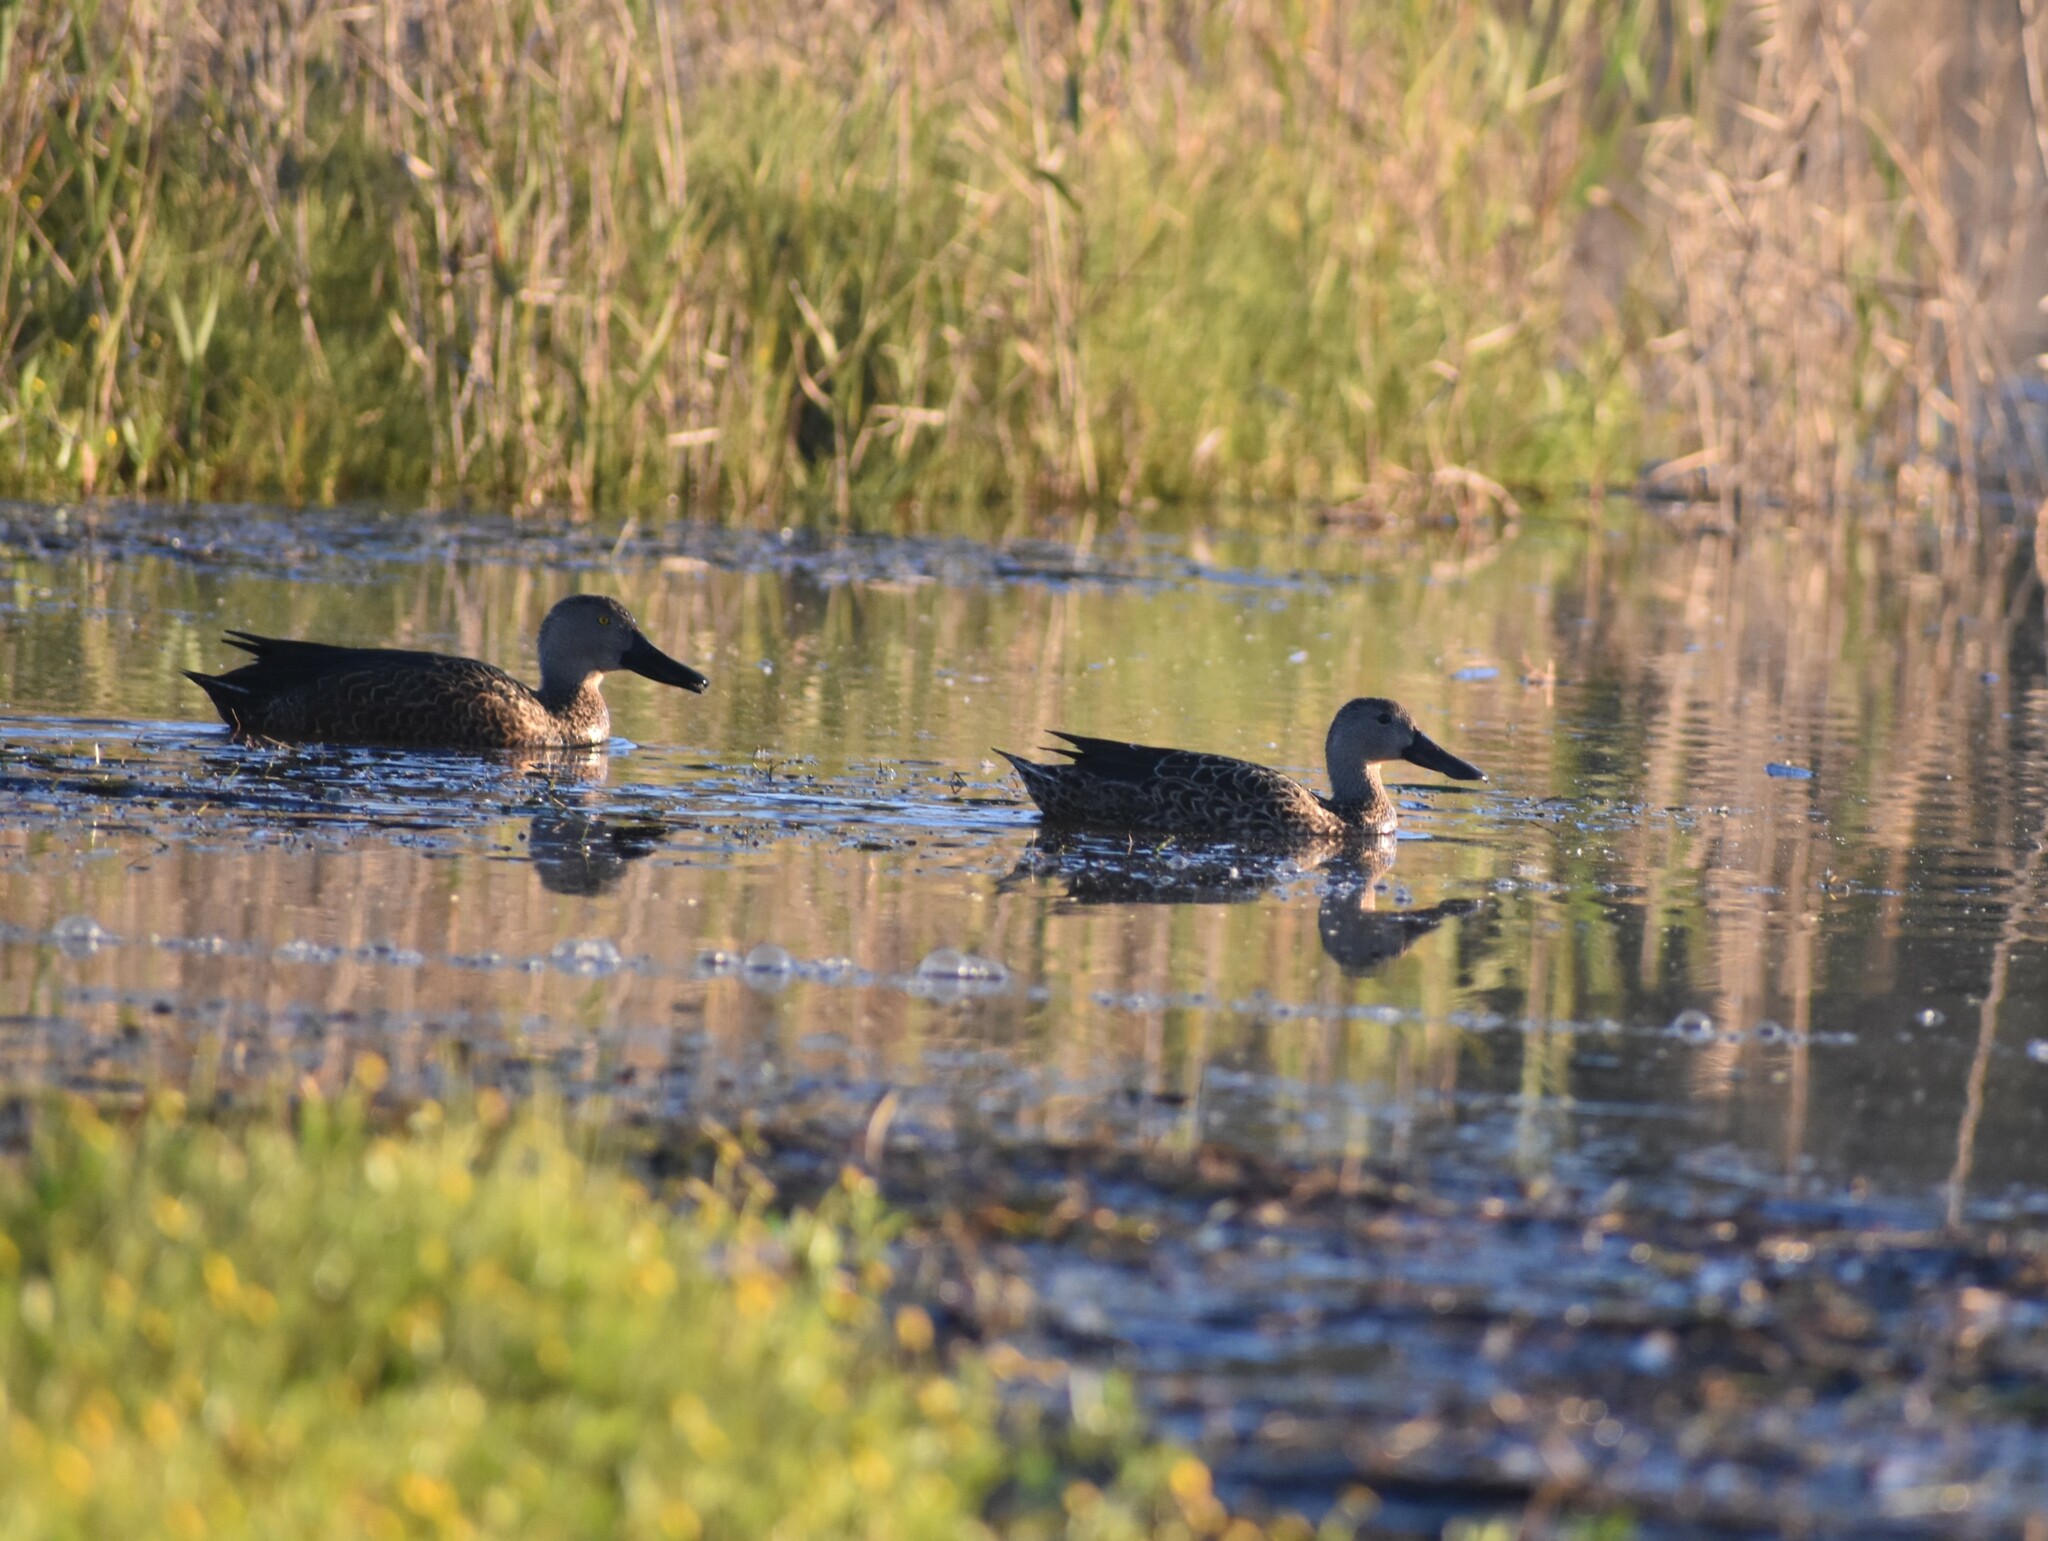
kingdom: Animalia
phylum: Chordata
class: Aves
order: Anseriformes
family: Anatidae
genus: Spatula
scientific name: Spatula smithii
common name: Cape shoveler
